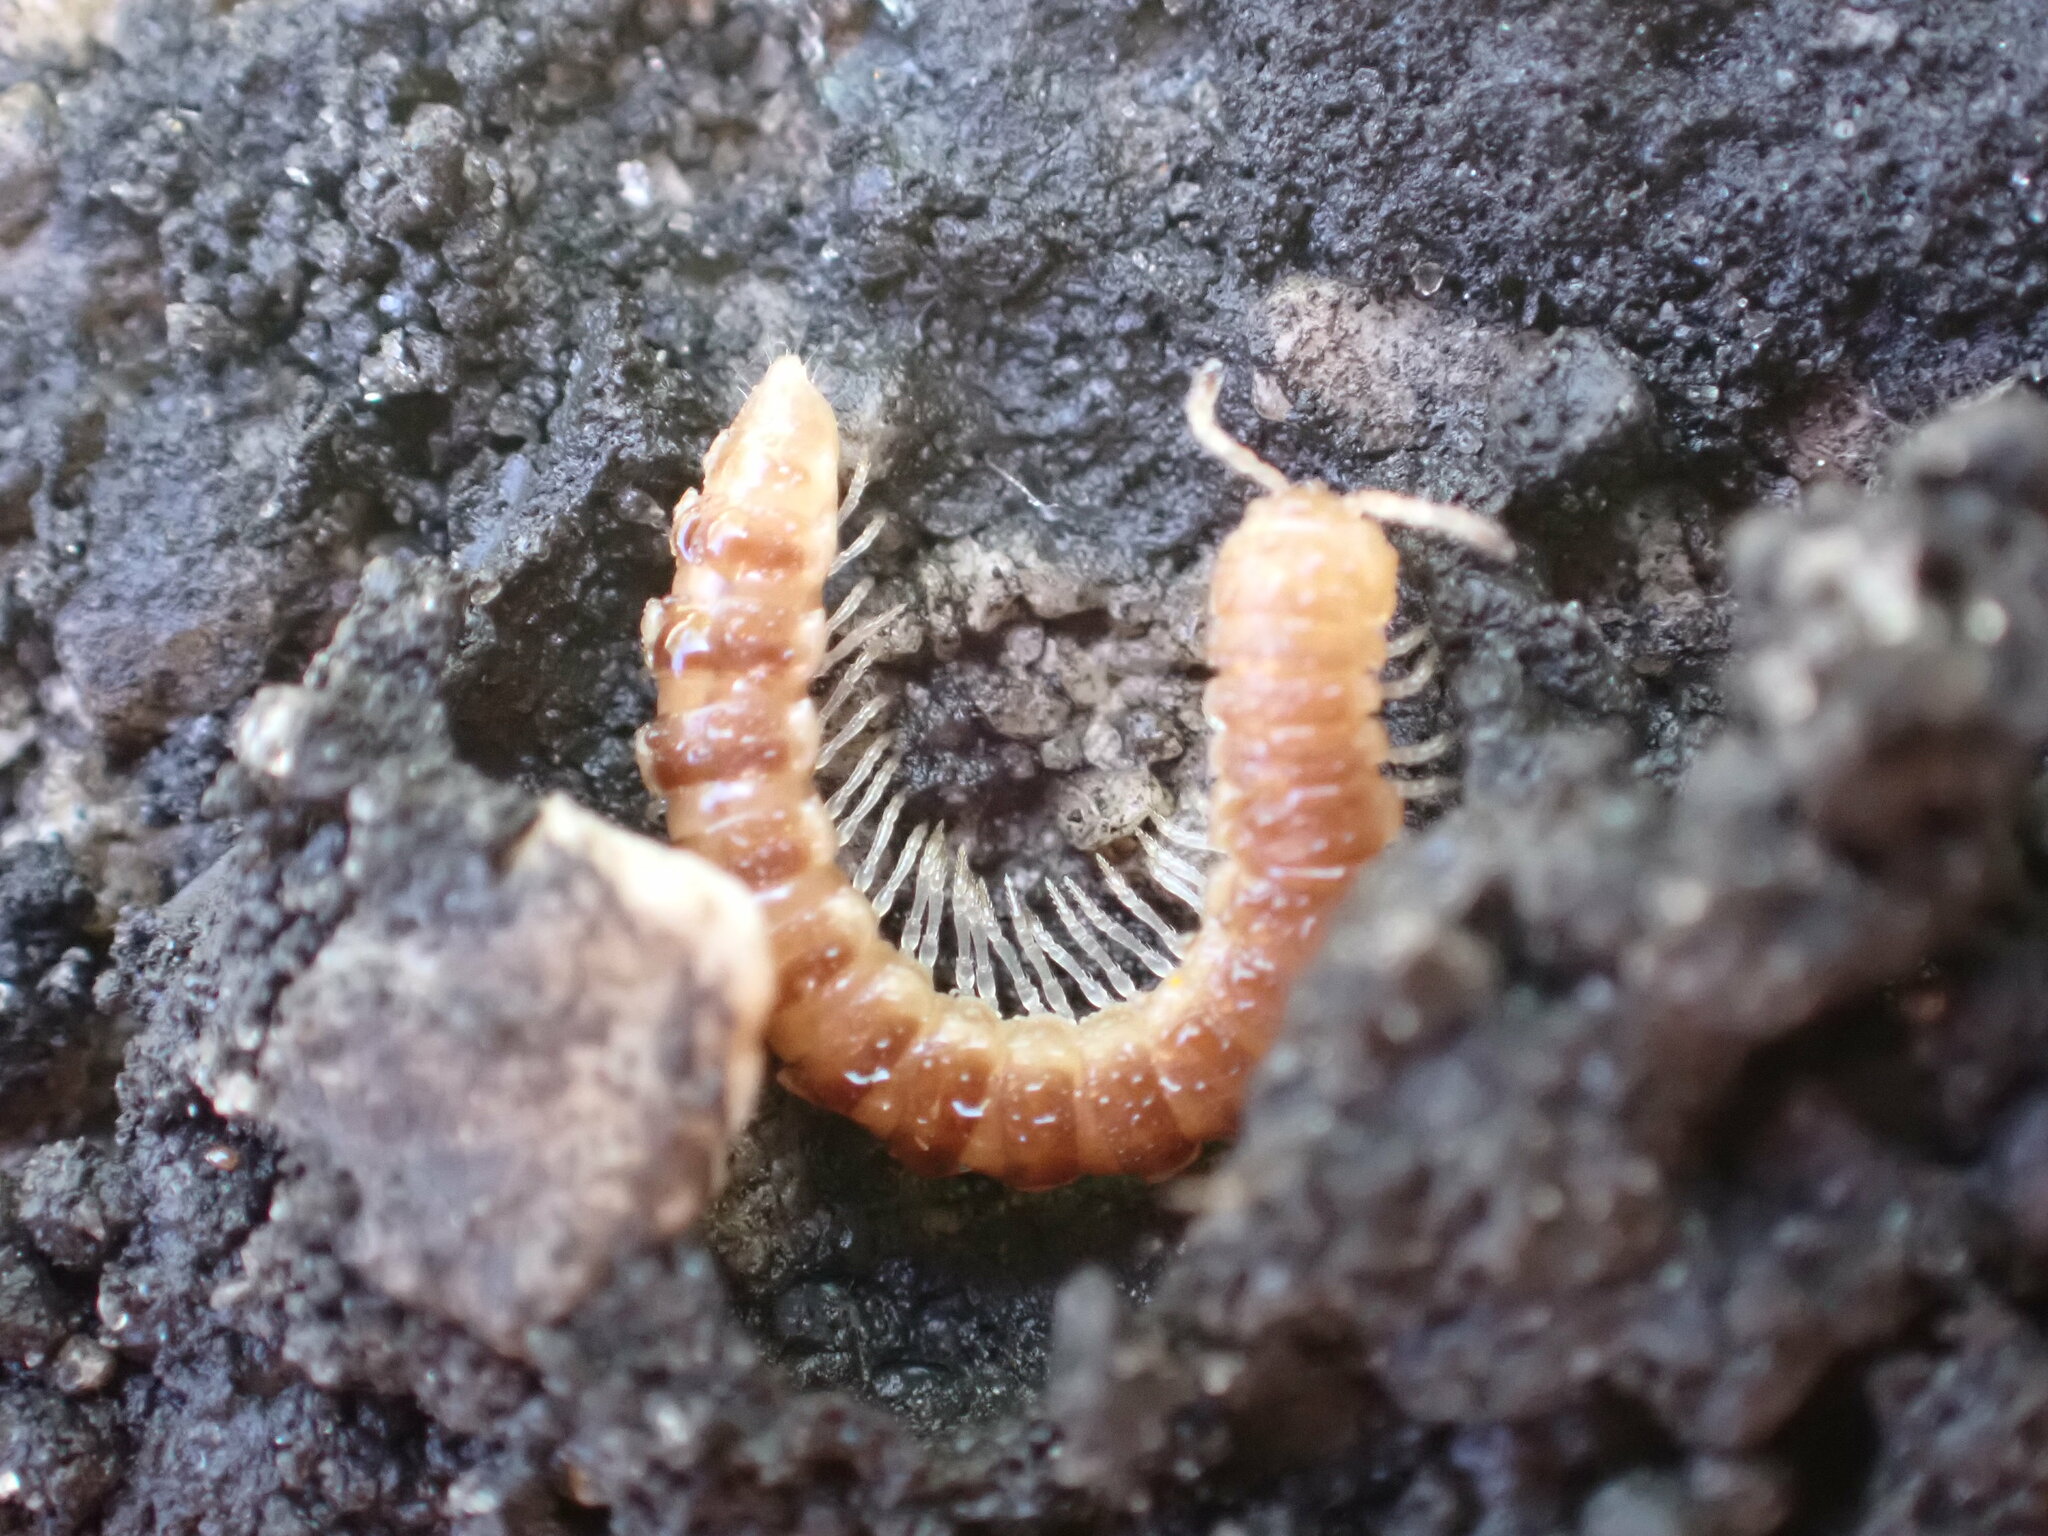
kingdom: Animalia
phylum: Arthropoda
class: Diplopoda
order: Polydesmida
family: Paradoxosomatidae
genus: Oxidus
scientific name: Oxidus gracilis
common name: Greenhouse millipede
